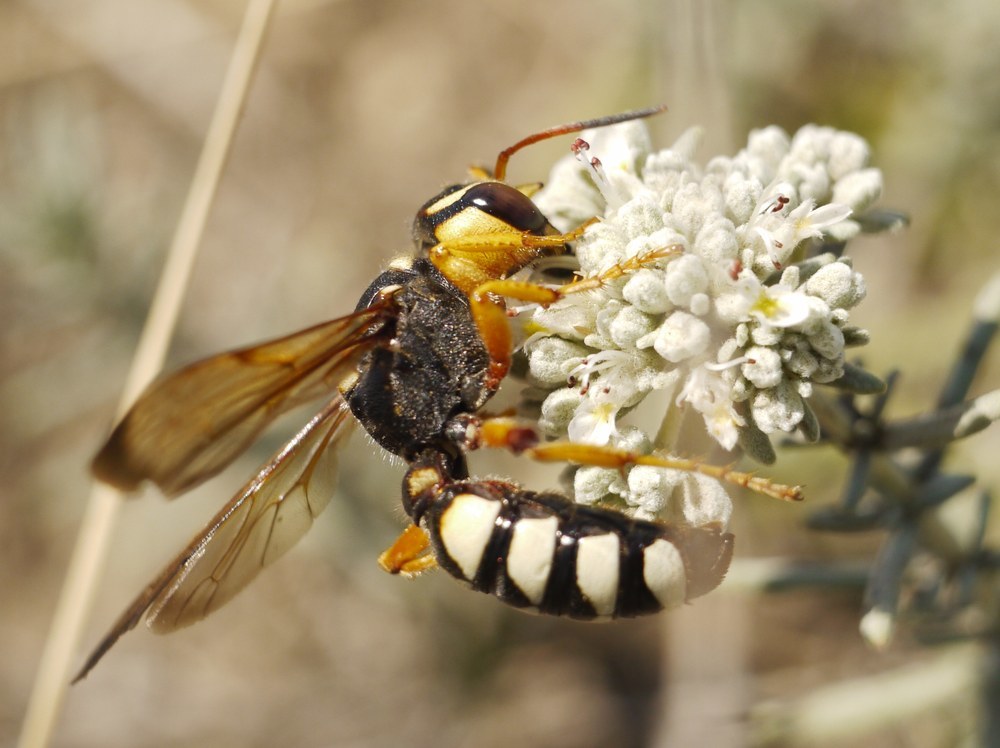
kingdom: Animalia
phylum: Arthropoda
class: Insecta
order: Hymenoptera
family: Crabronidae
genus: Cerceris
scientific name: Cerceris tuberculata
